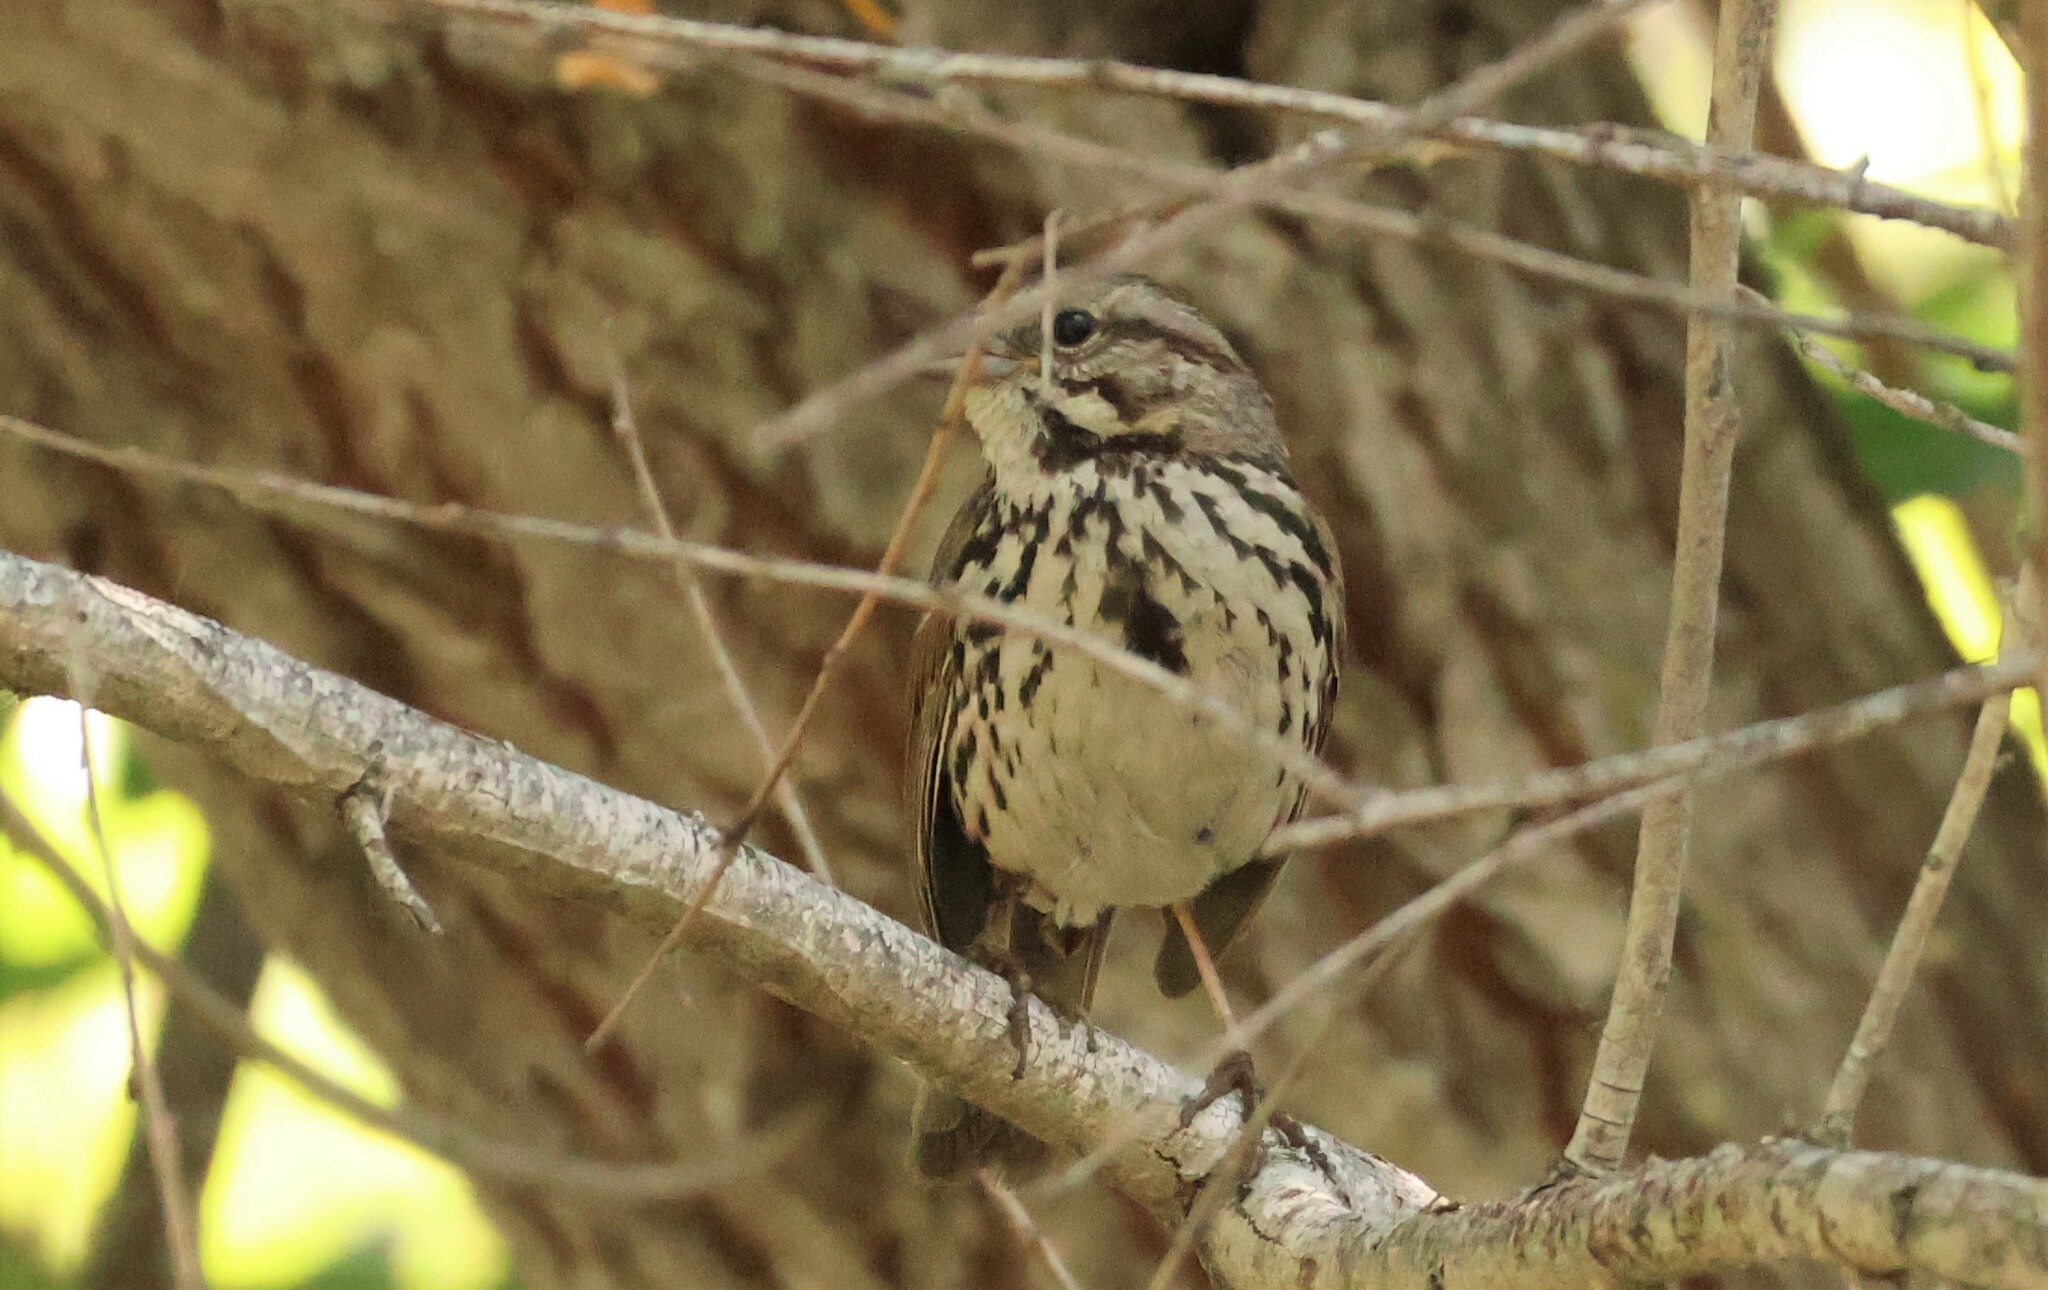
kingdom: Animalia
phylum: Chordata
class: Aves
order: Passeriformes
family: Passerellidae
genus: Melospiza
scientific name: Melospiza melodia
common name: Song sparrow
